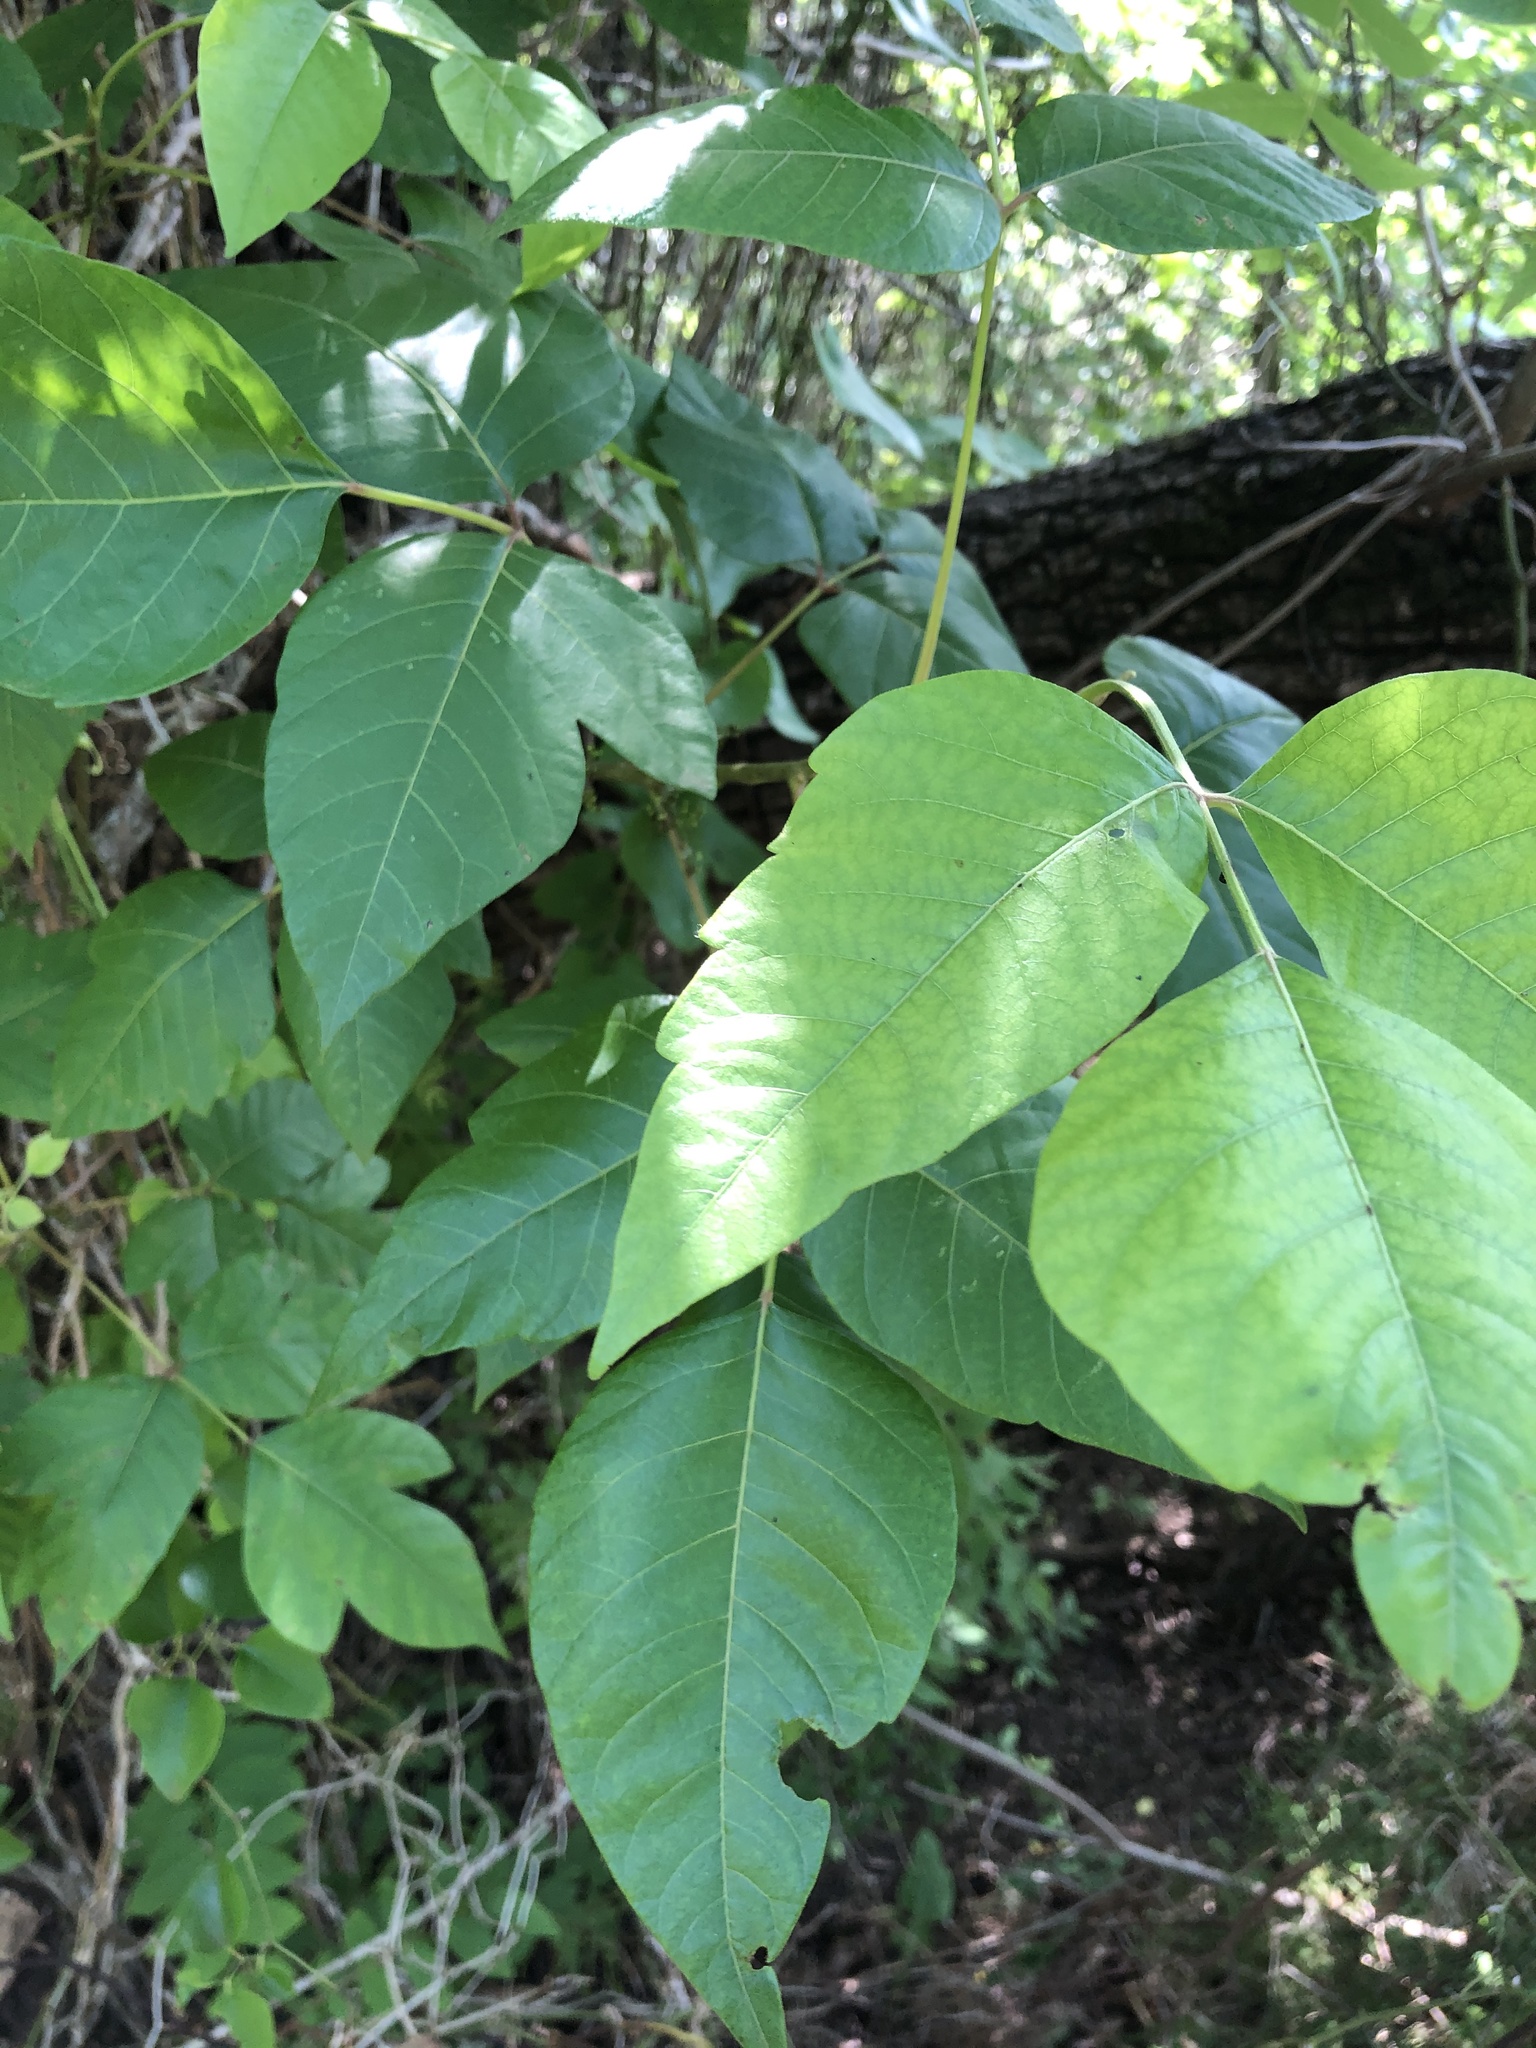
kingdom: Plantae
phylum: Tracheophyta
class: Magnoliopsida
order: Sapindales
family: Anacardiaceae
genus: Toxicodendron
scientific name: Toxicodendron radicans
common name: Poison ivy
